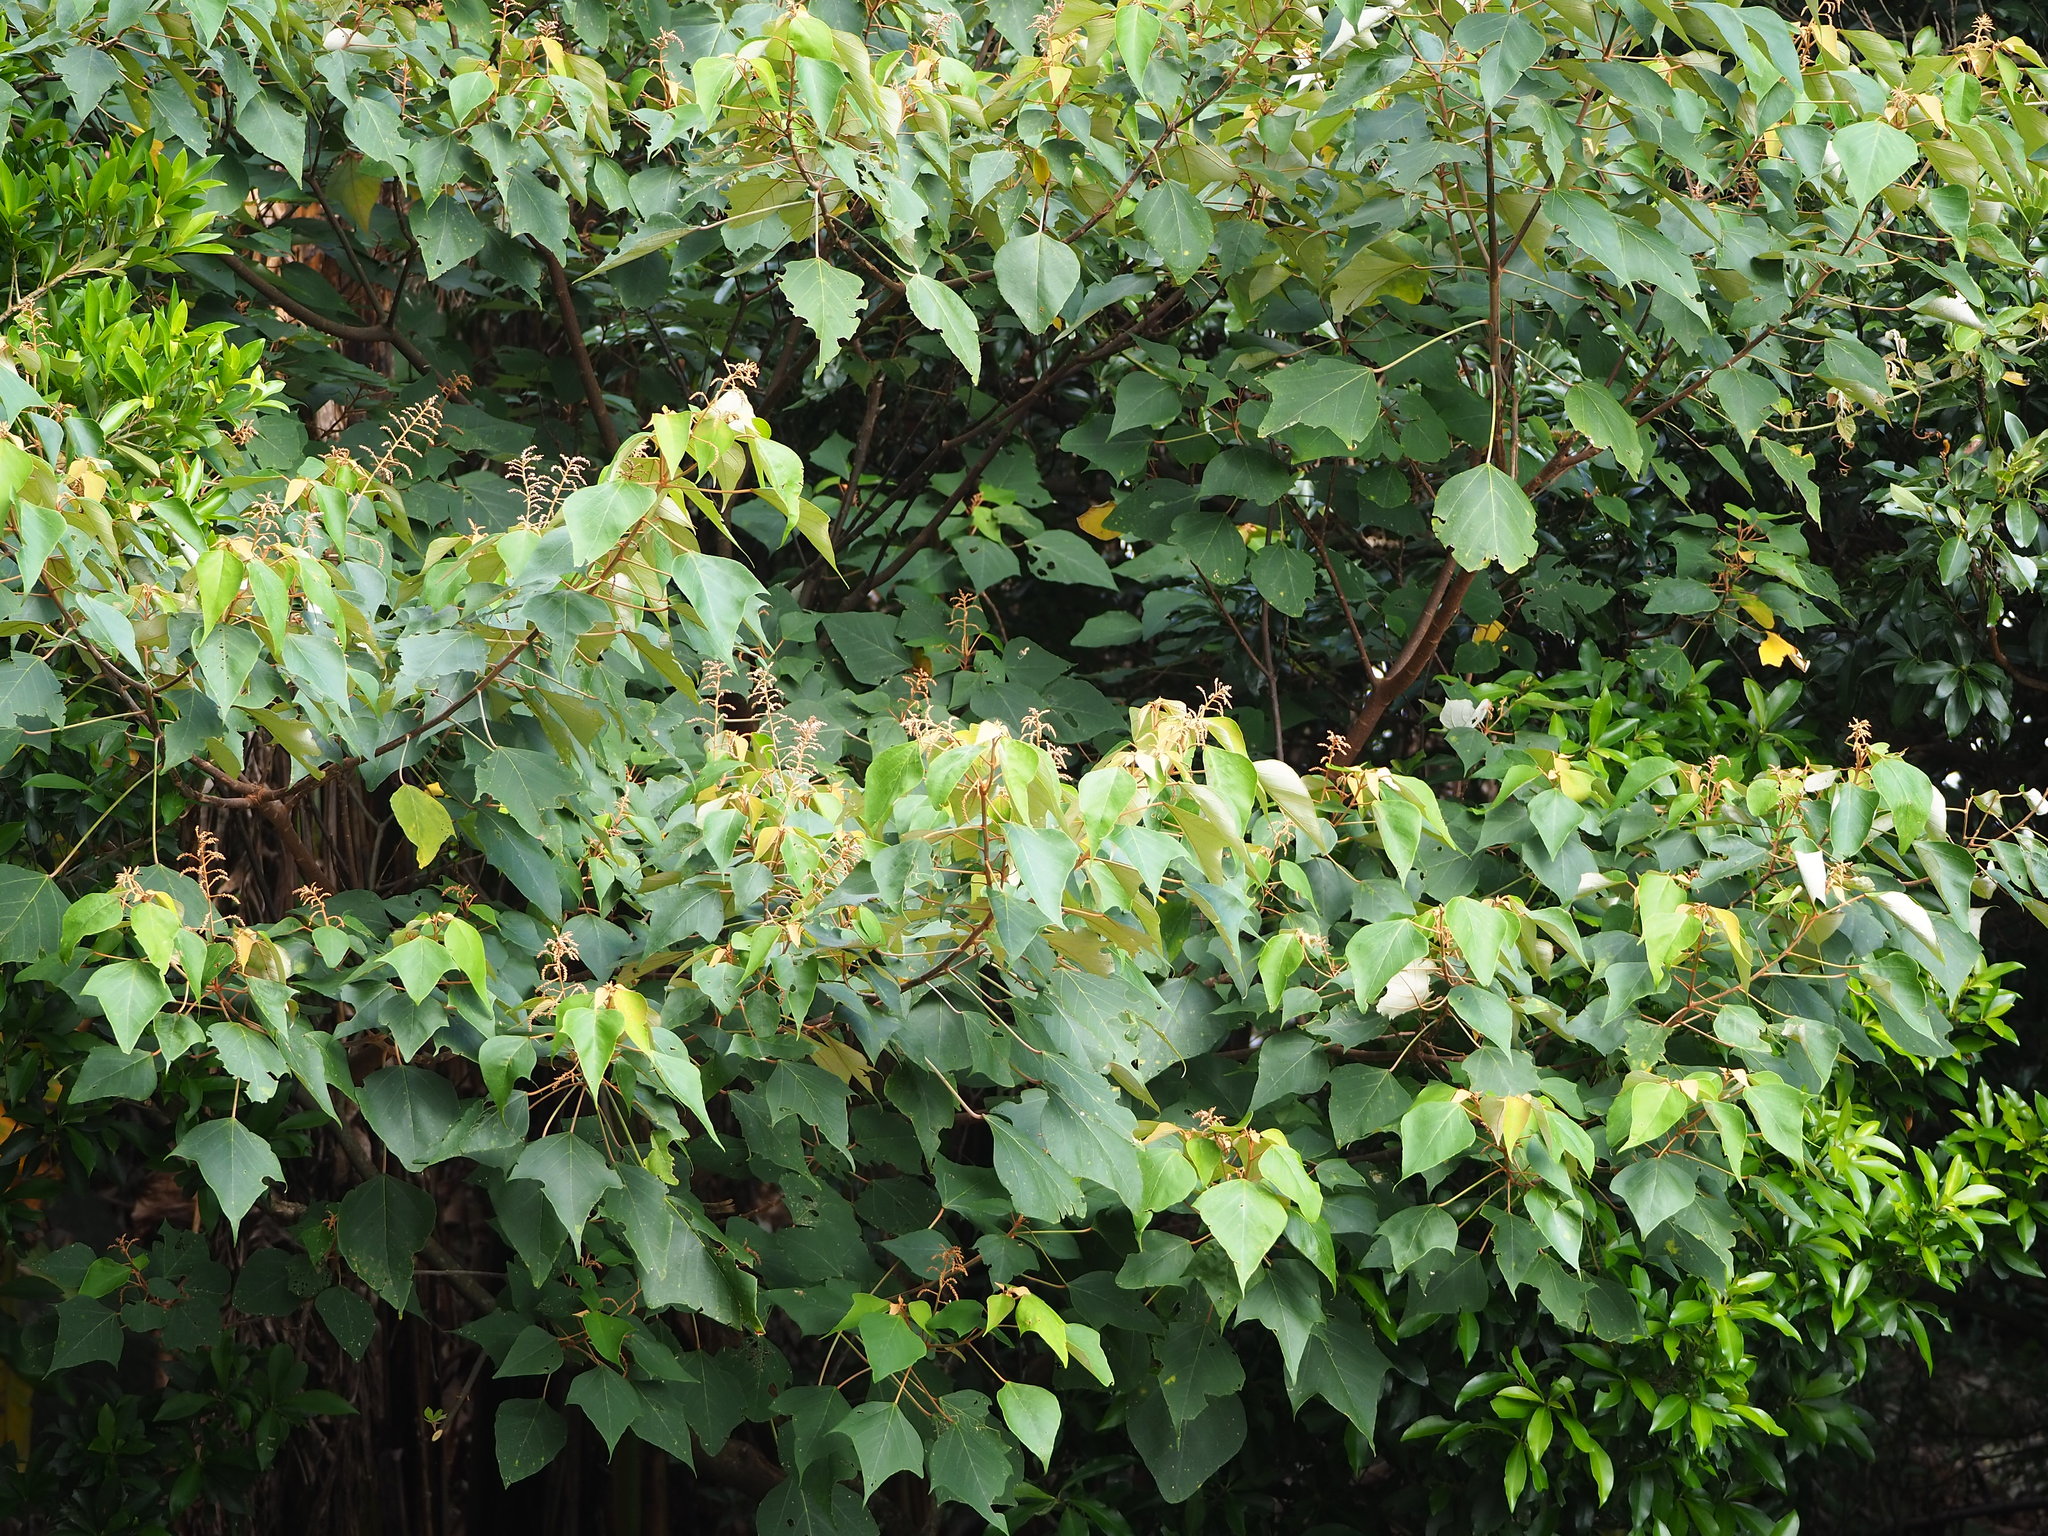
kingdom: Plantae
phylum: Tracheophyta
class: Magnoliopsida
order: Malpighiales
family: Euphorbiaceae
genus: Mallotus
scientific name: Mallotus paniculatus
